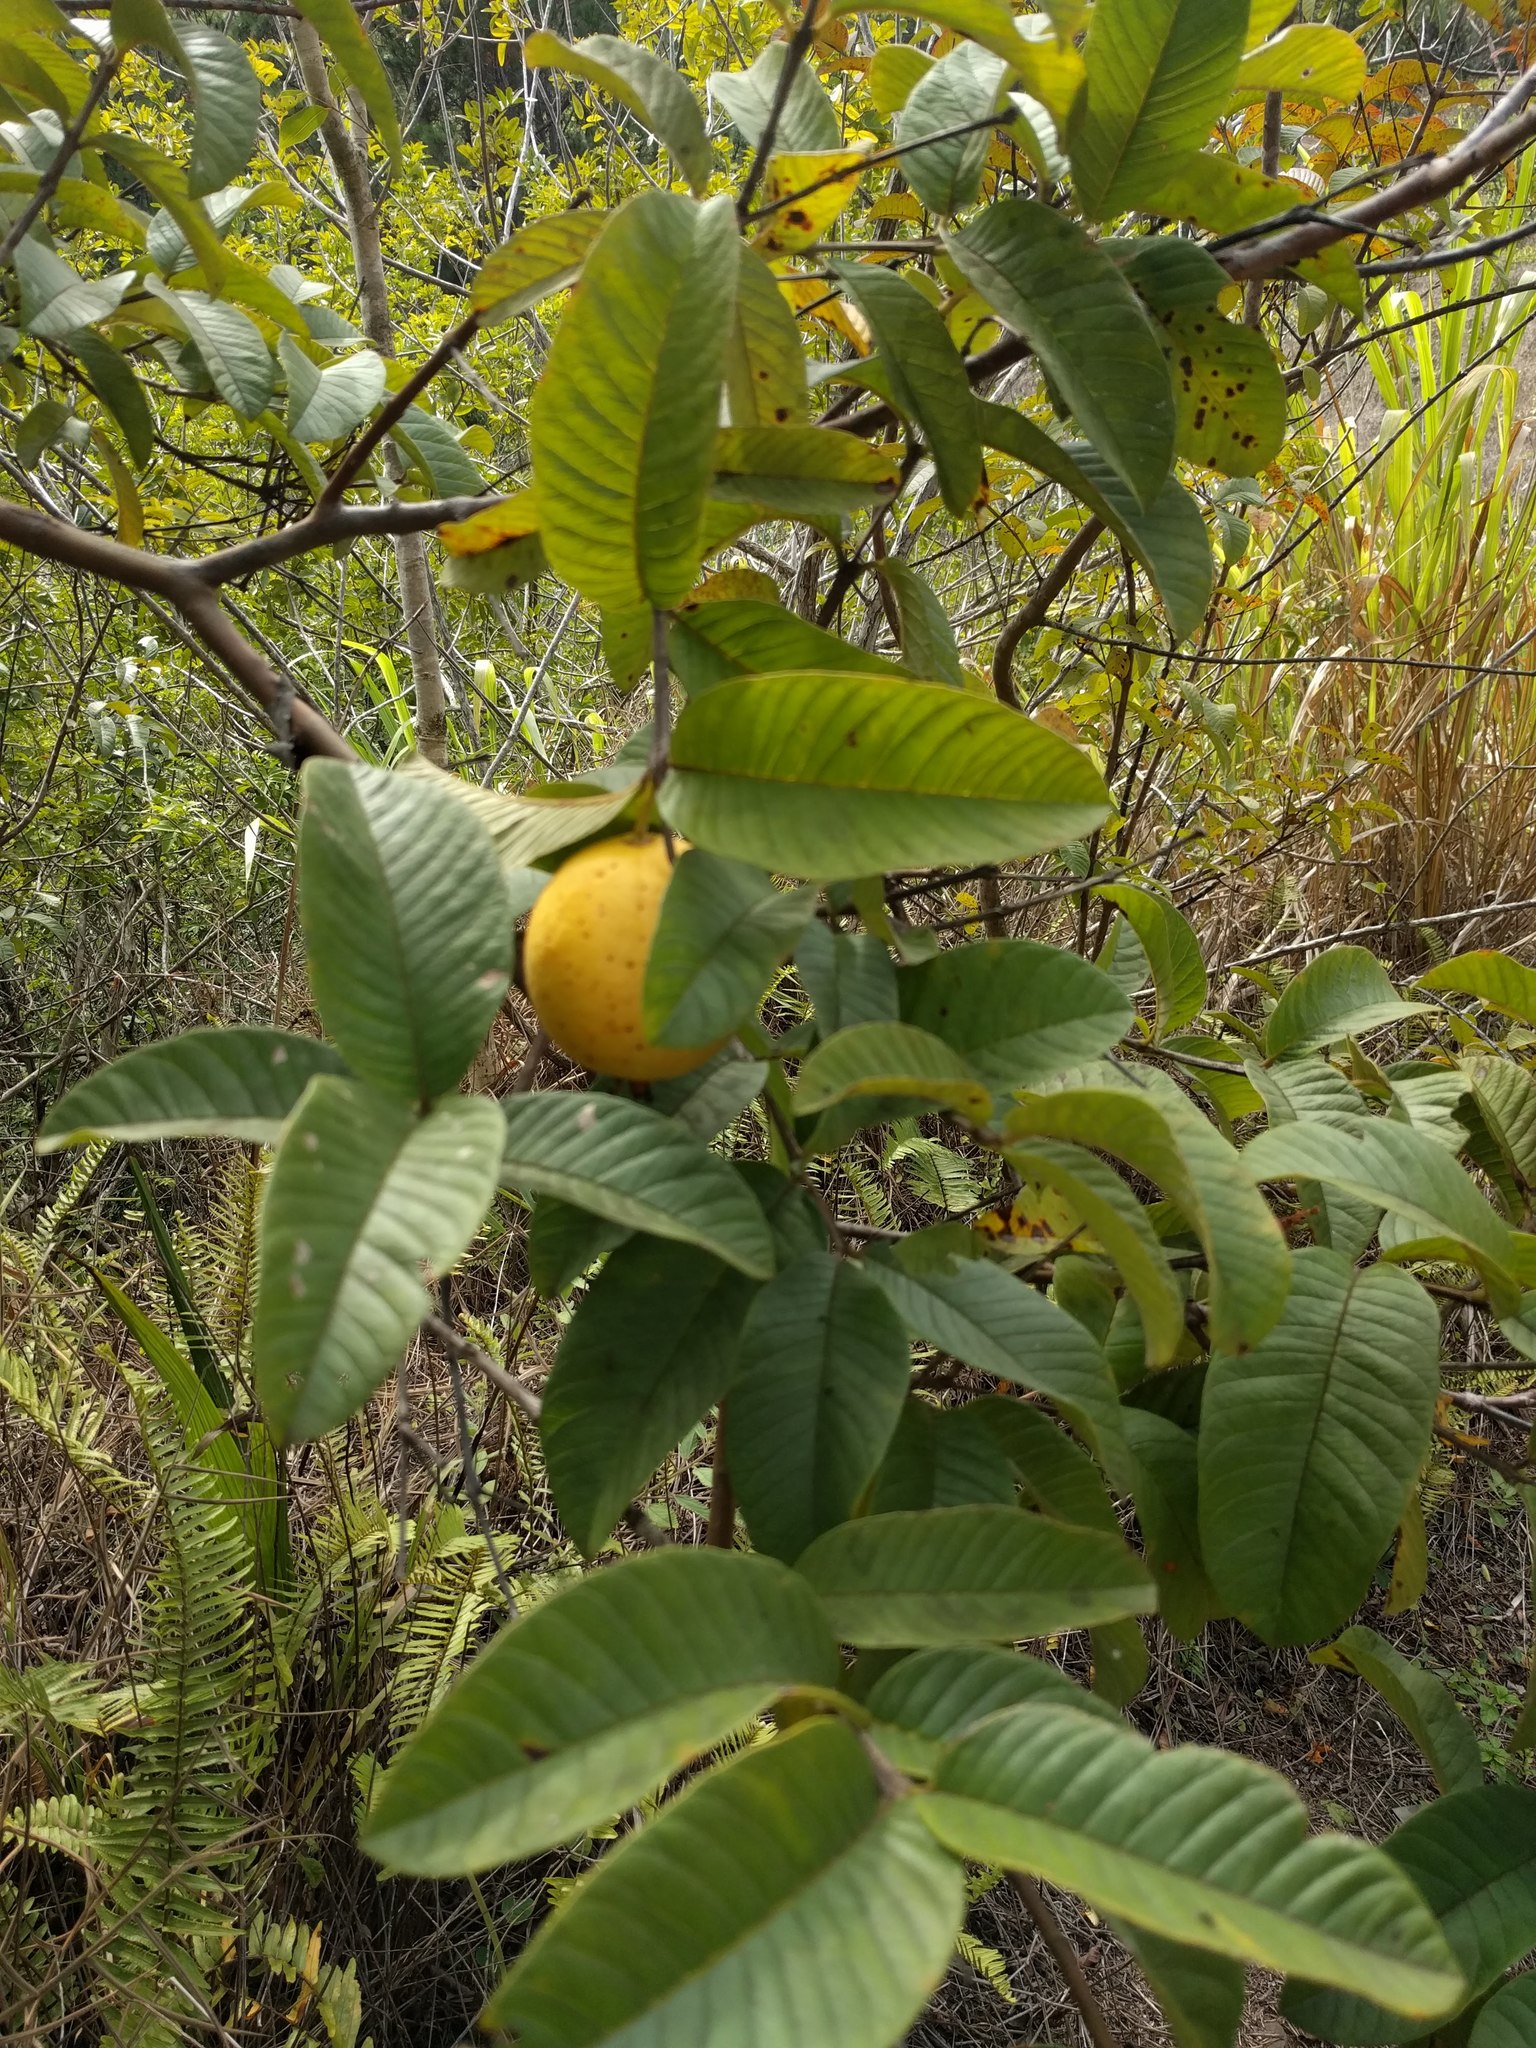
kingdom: Plantae
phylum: Tracheophyta
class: Magnoliopsida
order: Myrtales
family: Myrtaceae
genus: Psidium
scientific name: Psidium guajava
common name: Guava
